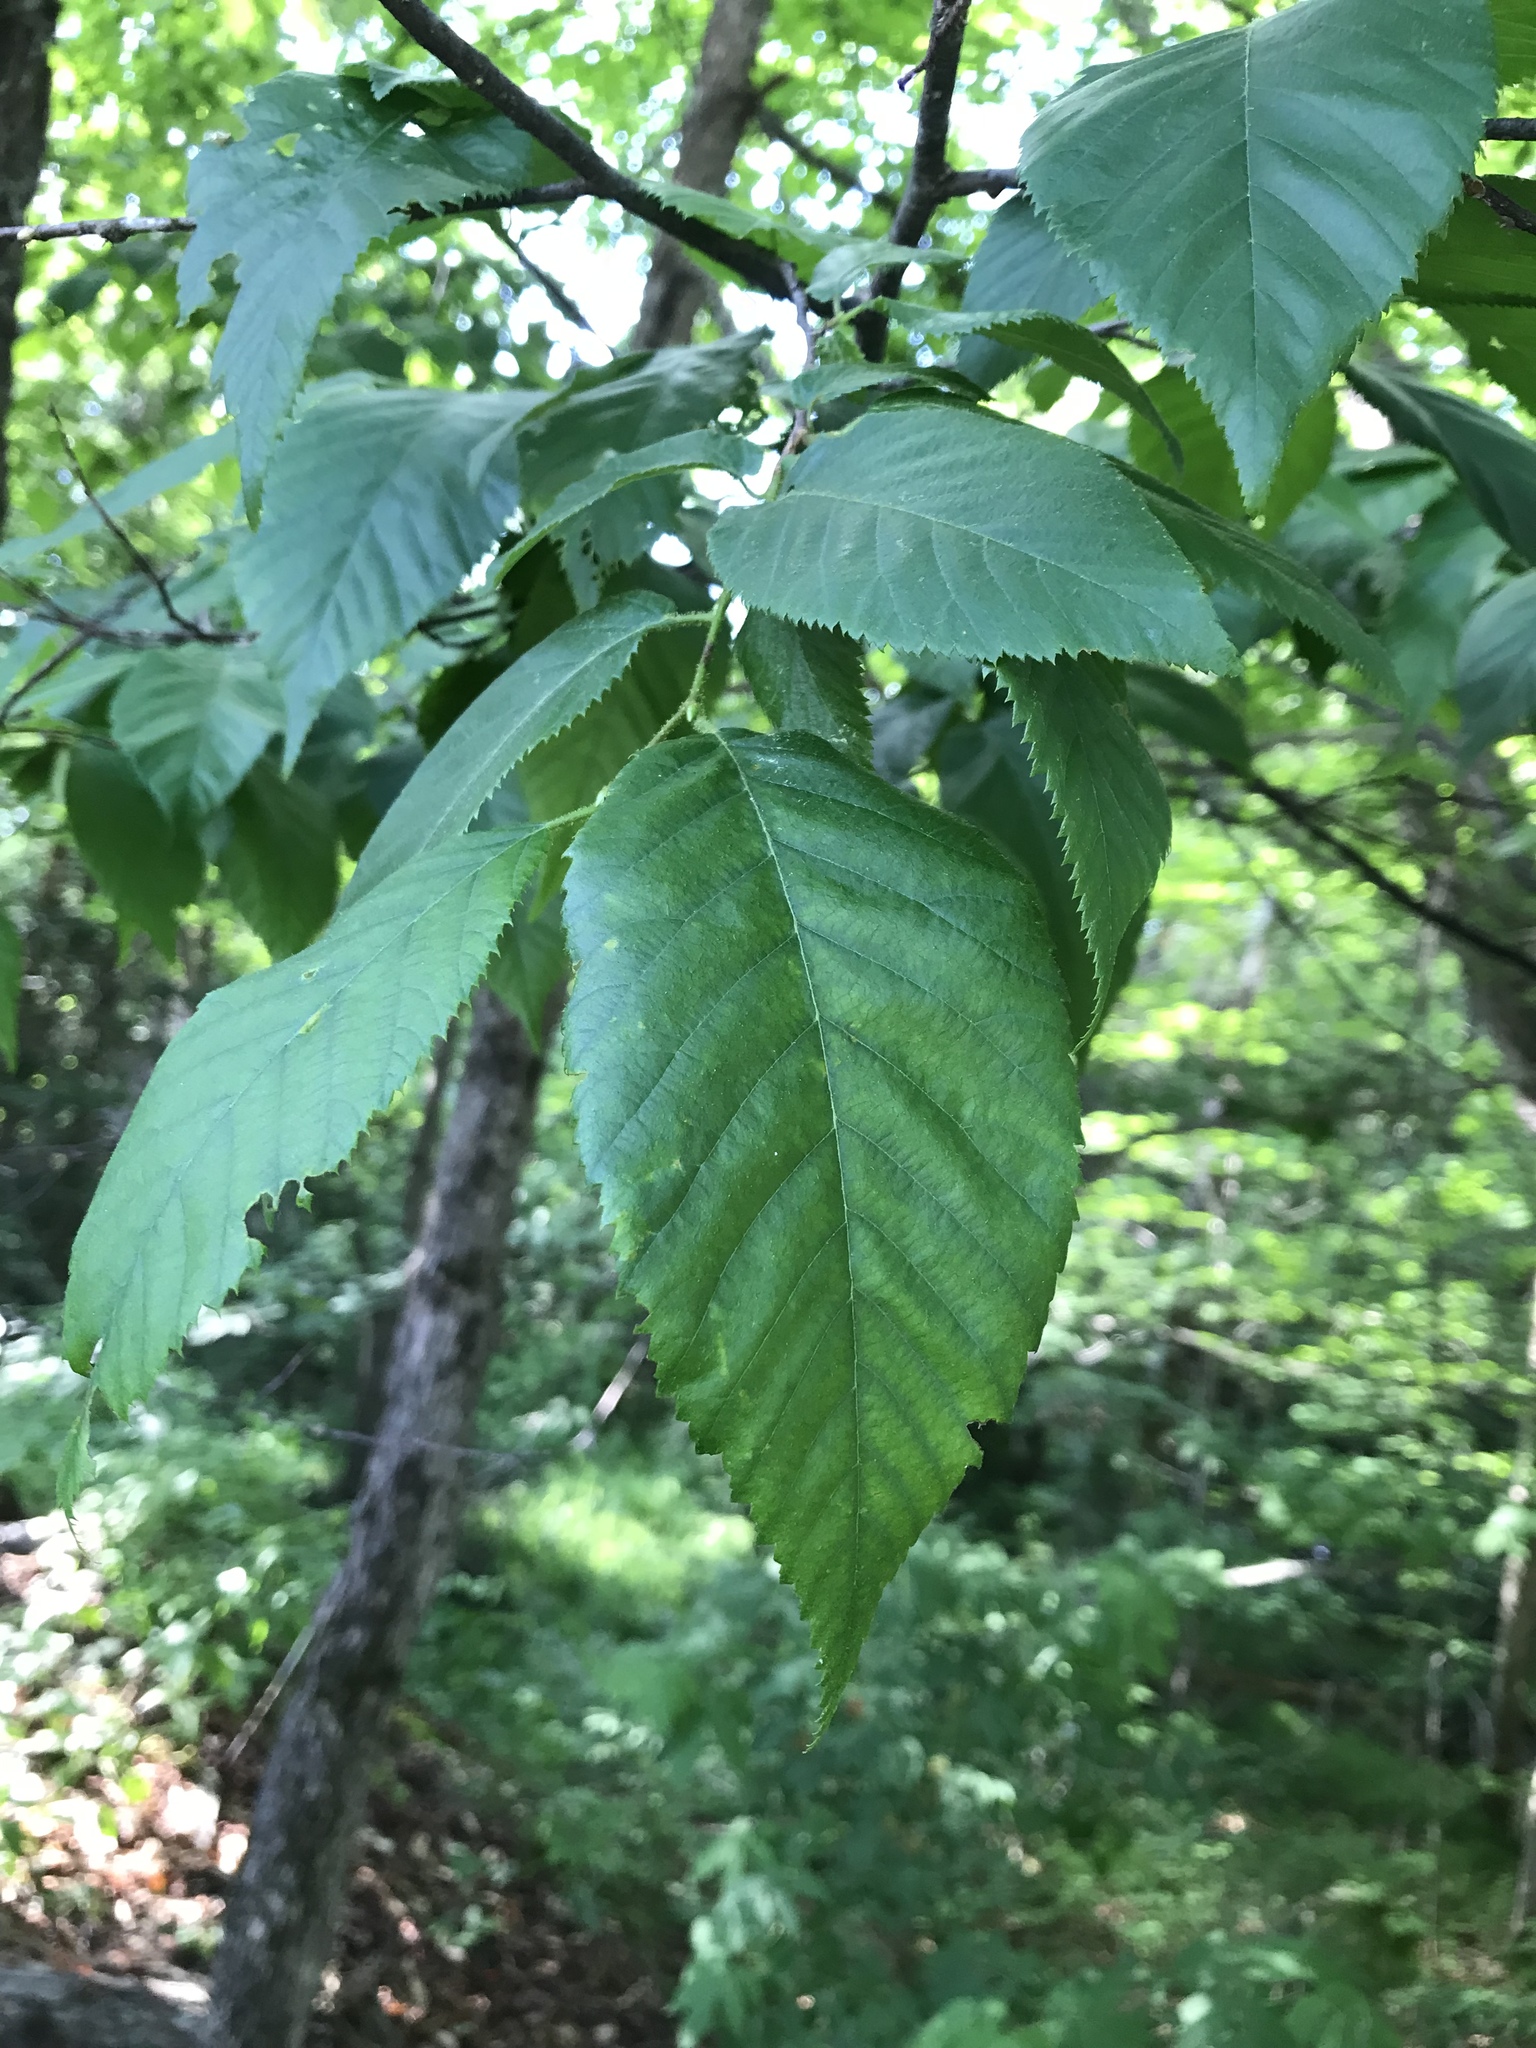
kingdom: Plantae
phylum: Tracheophyta
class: Magnoliopsida
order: Fagales
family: Betulaceae
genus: Ostrya
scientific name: Ostrya virginiana
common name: Ironwood
